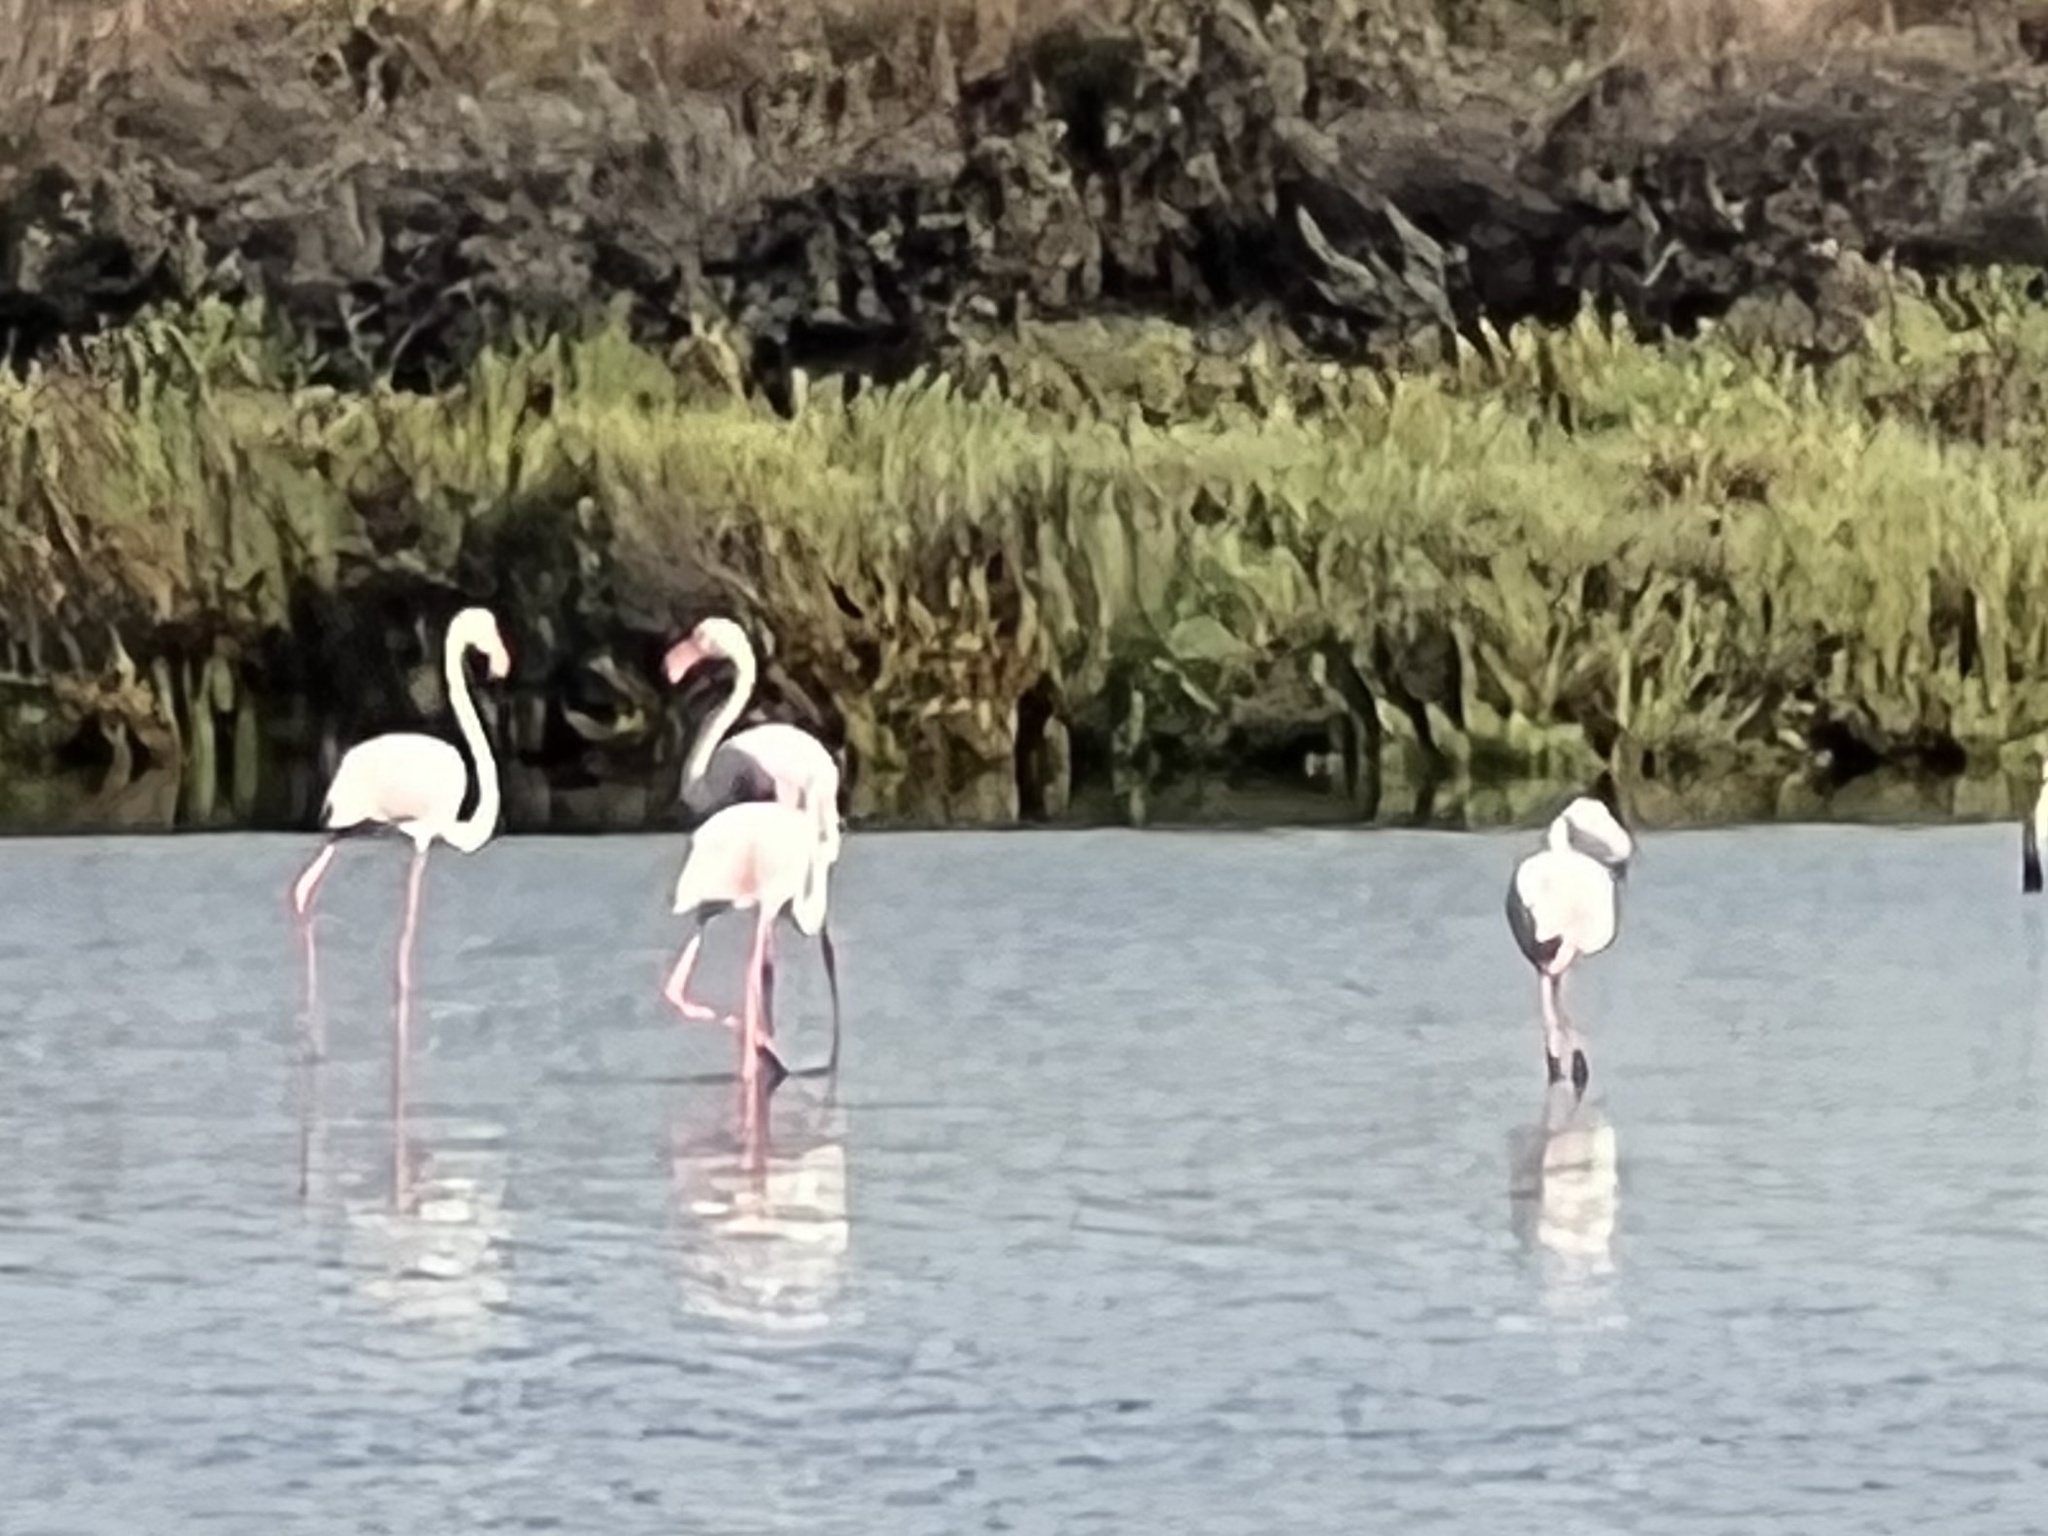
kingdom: Animalia
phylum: Chordata
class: Aves
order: Phoenicopteriformes
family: Phoenicopteridae
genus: Phoenicopterus
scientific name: Phoenicopterus roseus
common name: Greater flamingo
